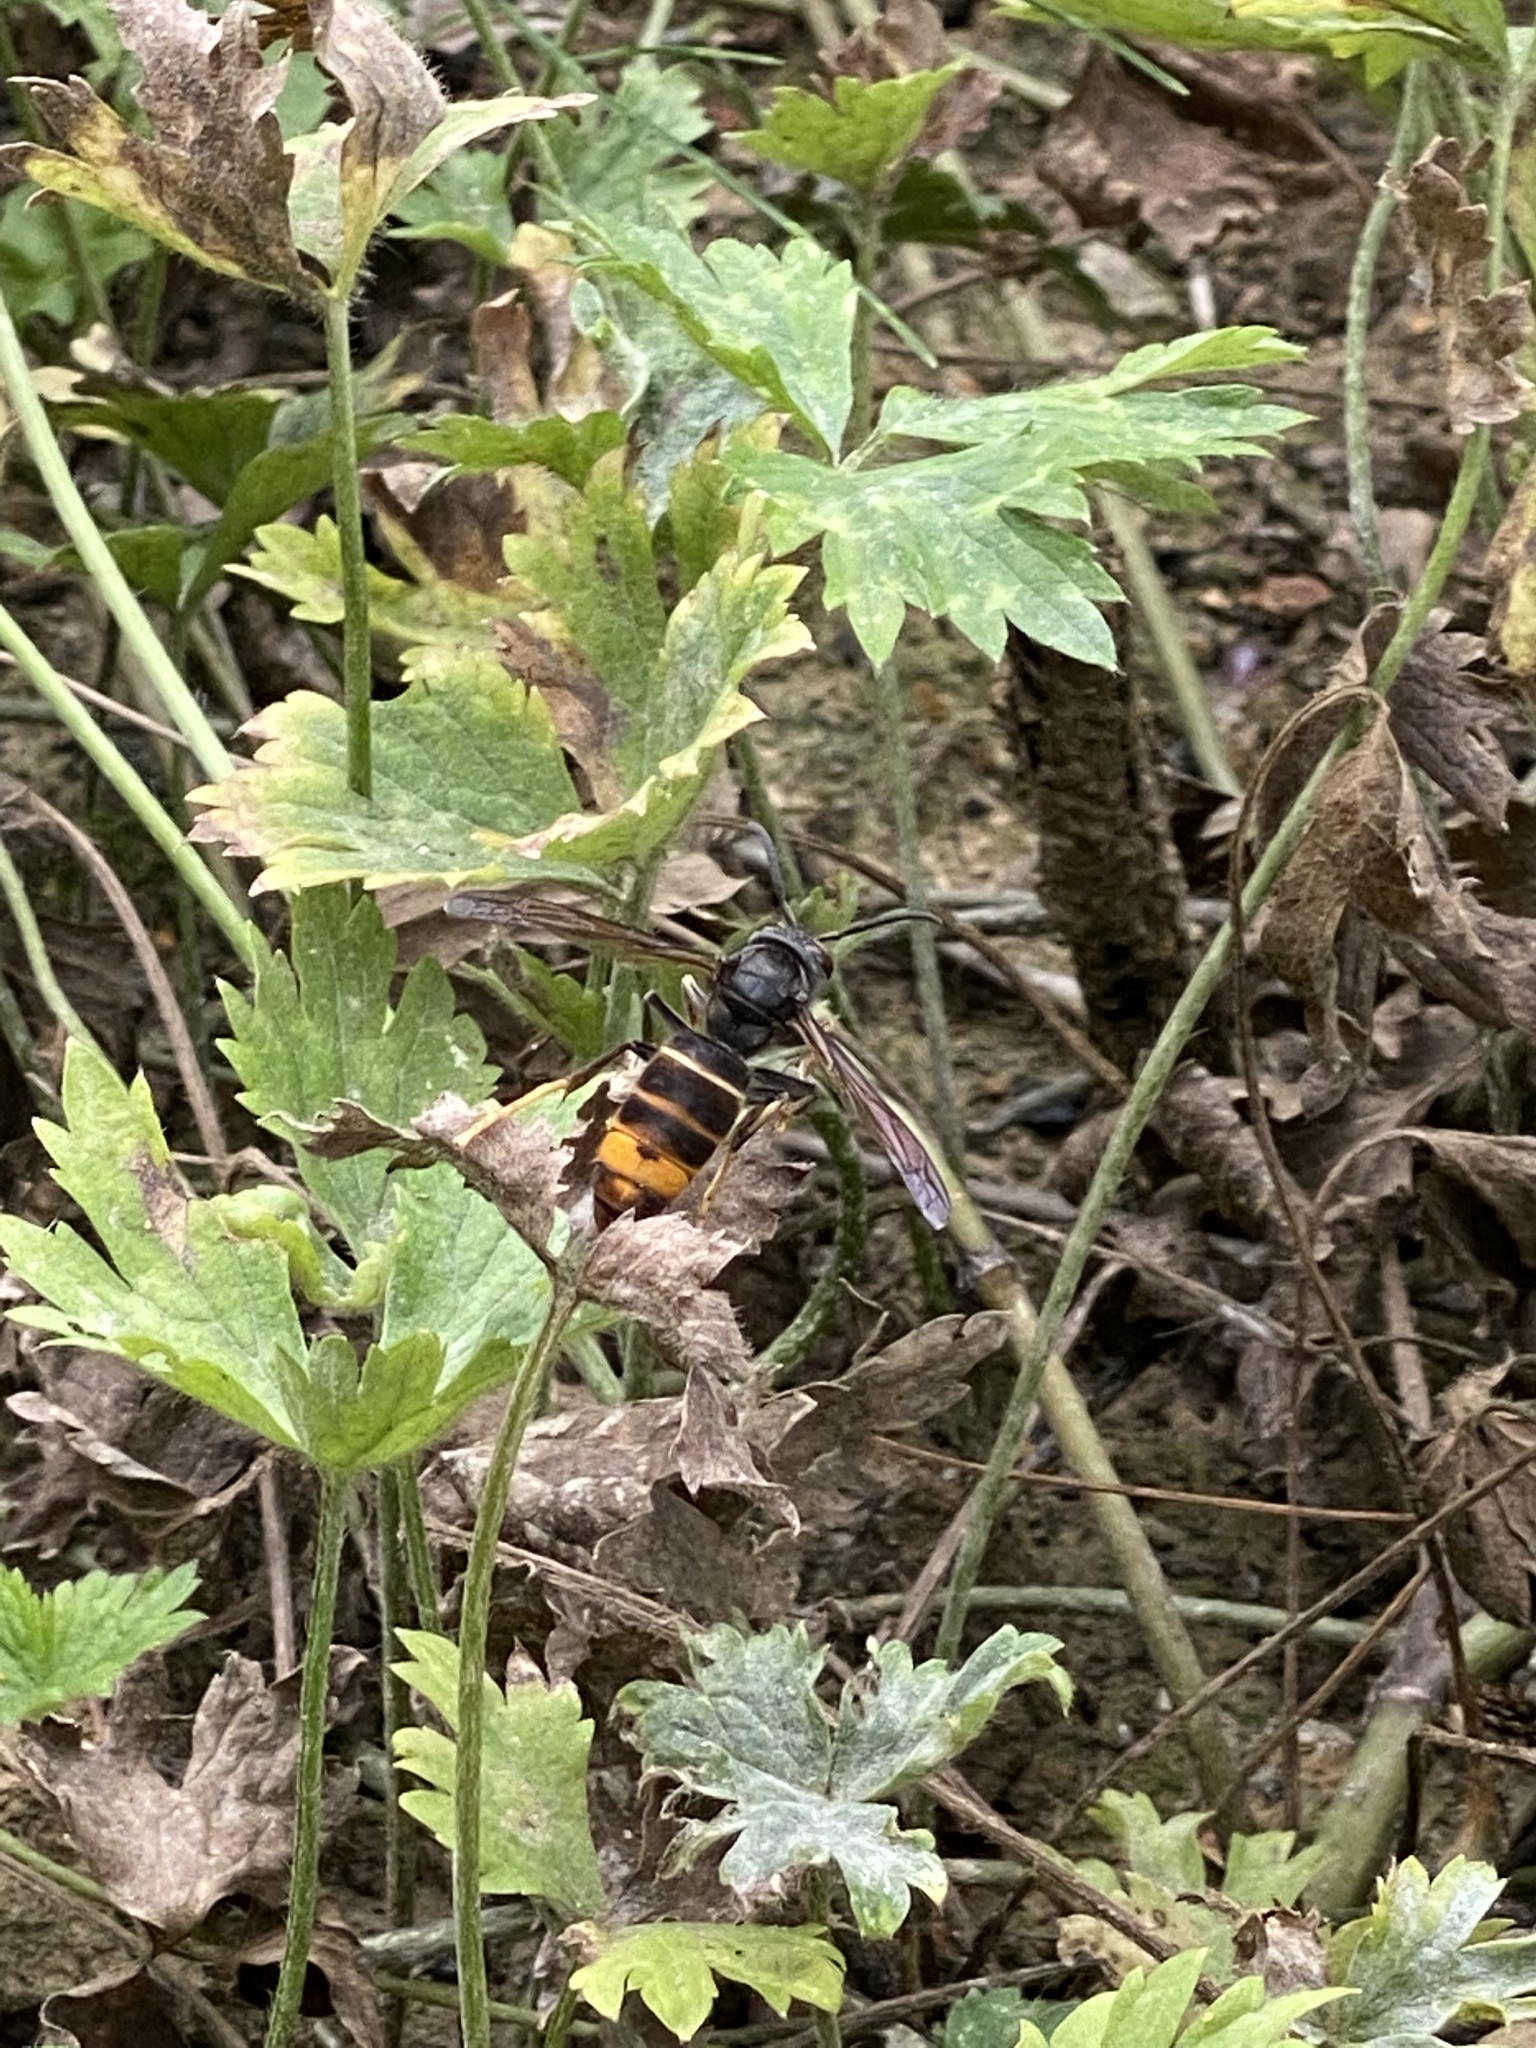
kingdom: Animalia
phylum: Arthropoda
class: Insecta
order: Hymenoptera
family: Vespidae
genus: Vespa
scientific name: Vespa velutina
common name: Asian hornet
